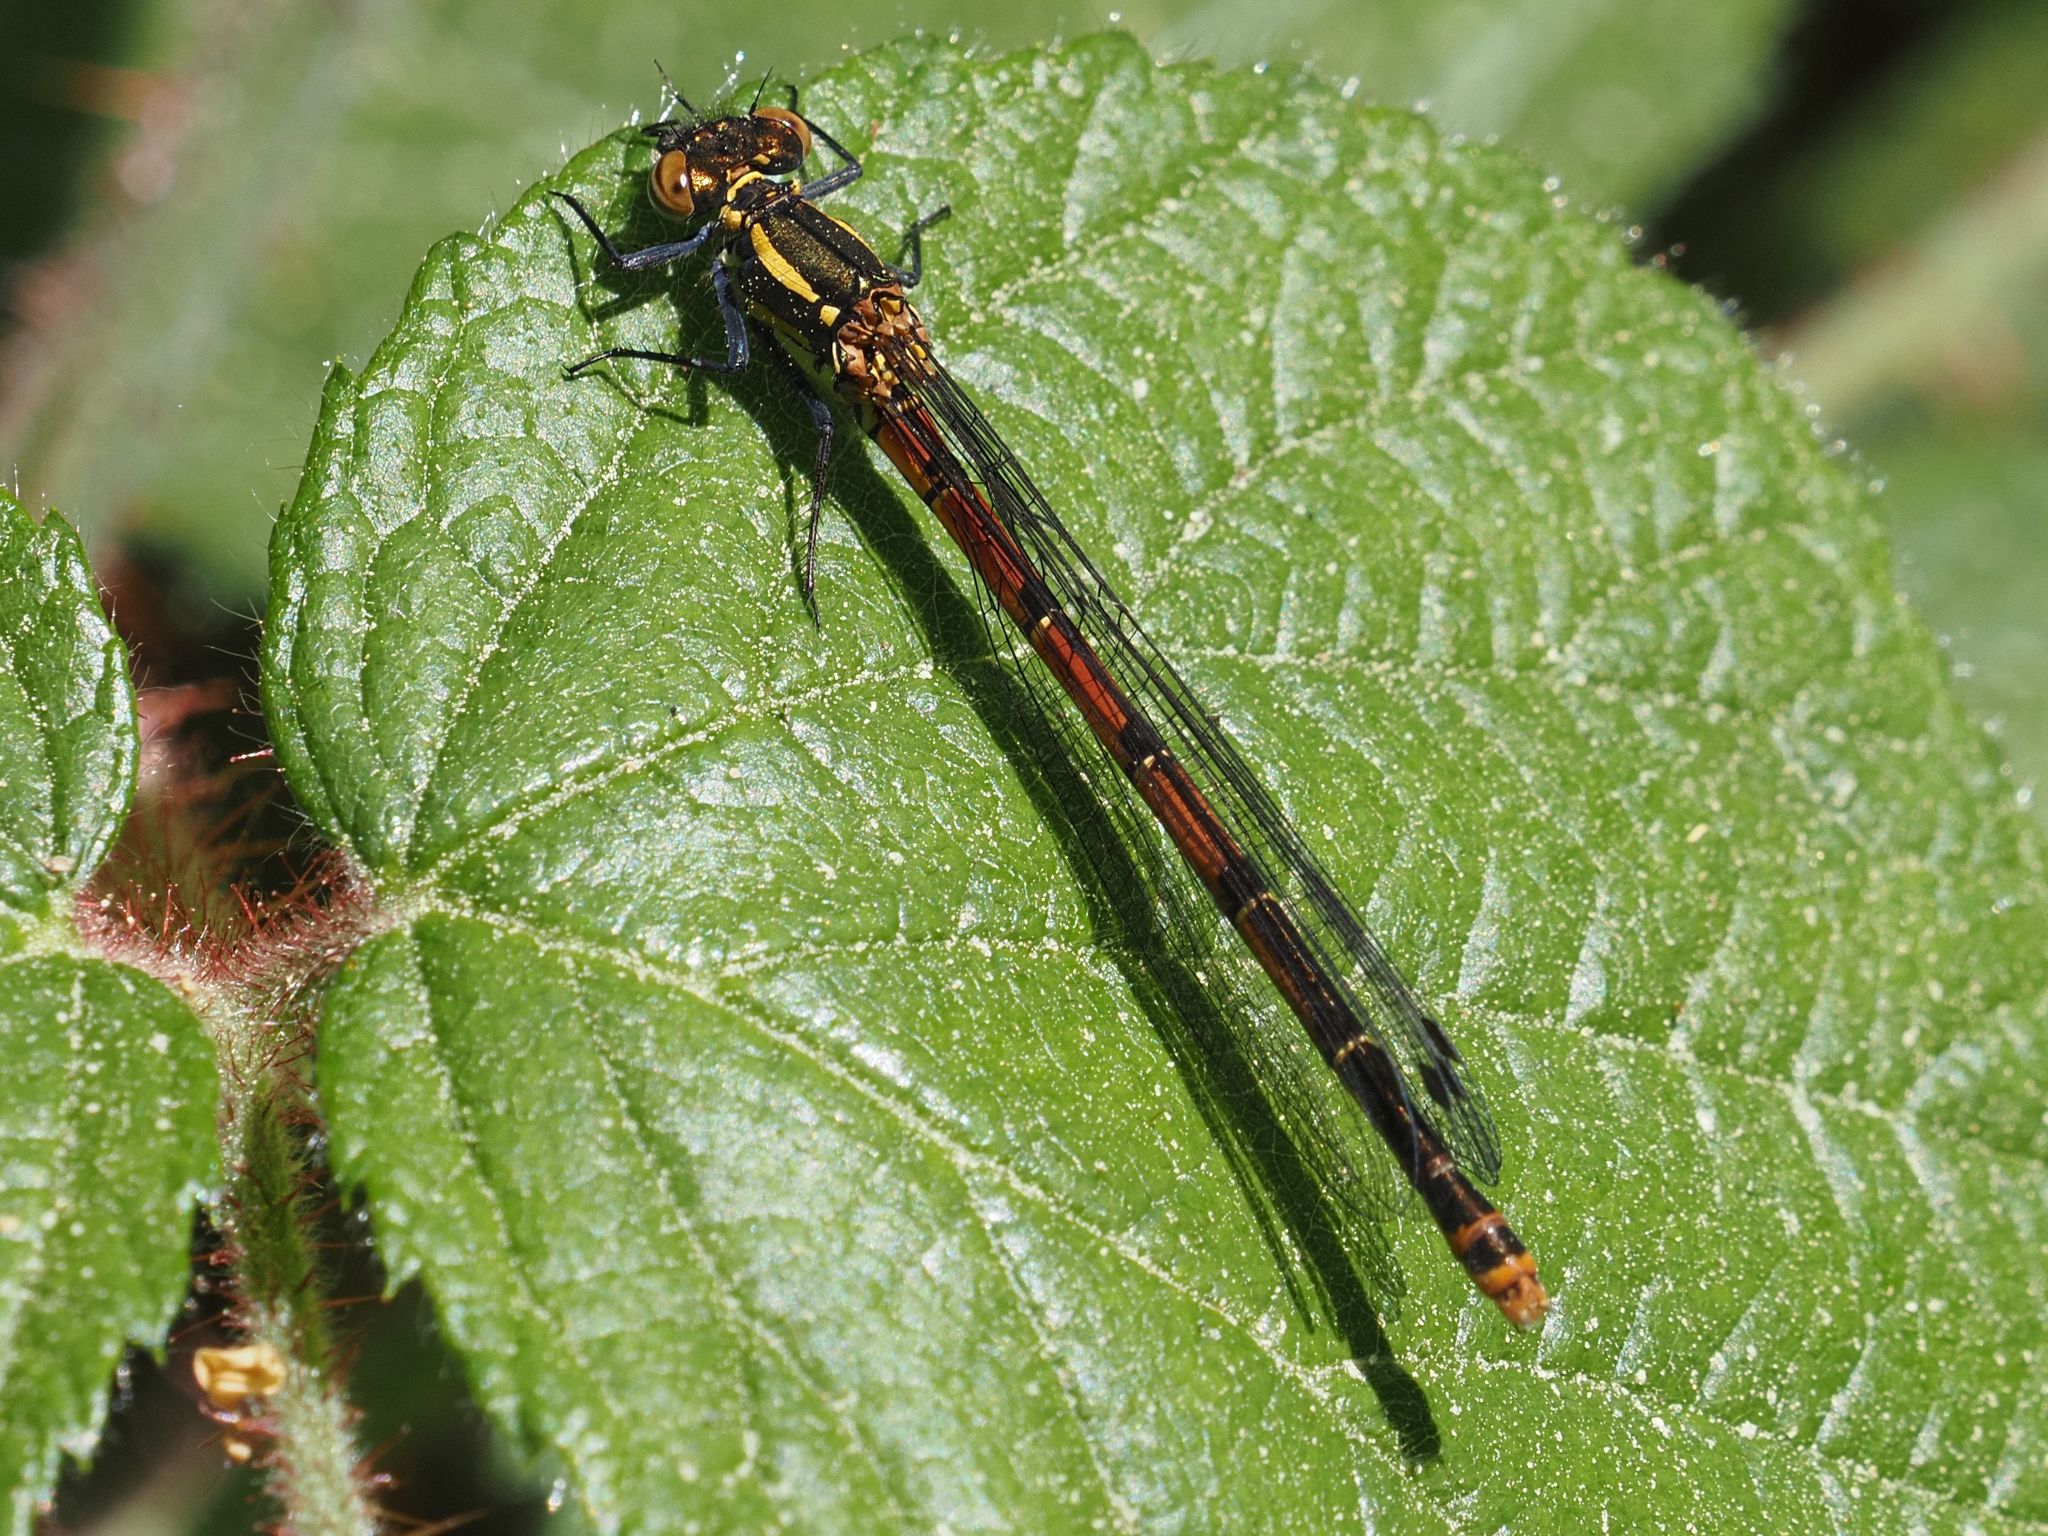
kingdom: Animalia
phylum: Arthropoda
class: Insecta
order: Odonata
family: Coenagrionidae
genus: Pyrrhosoma
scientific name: Pyrrhosoma nymphula
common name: Large red damsel
